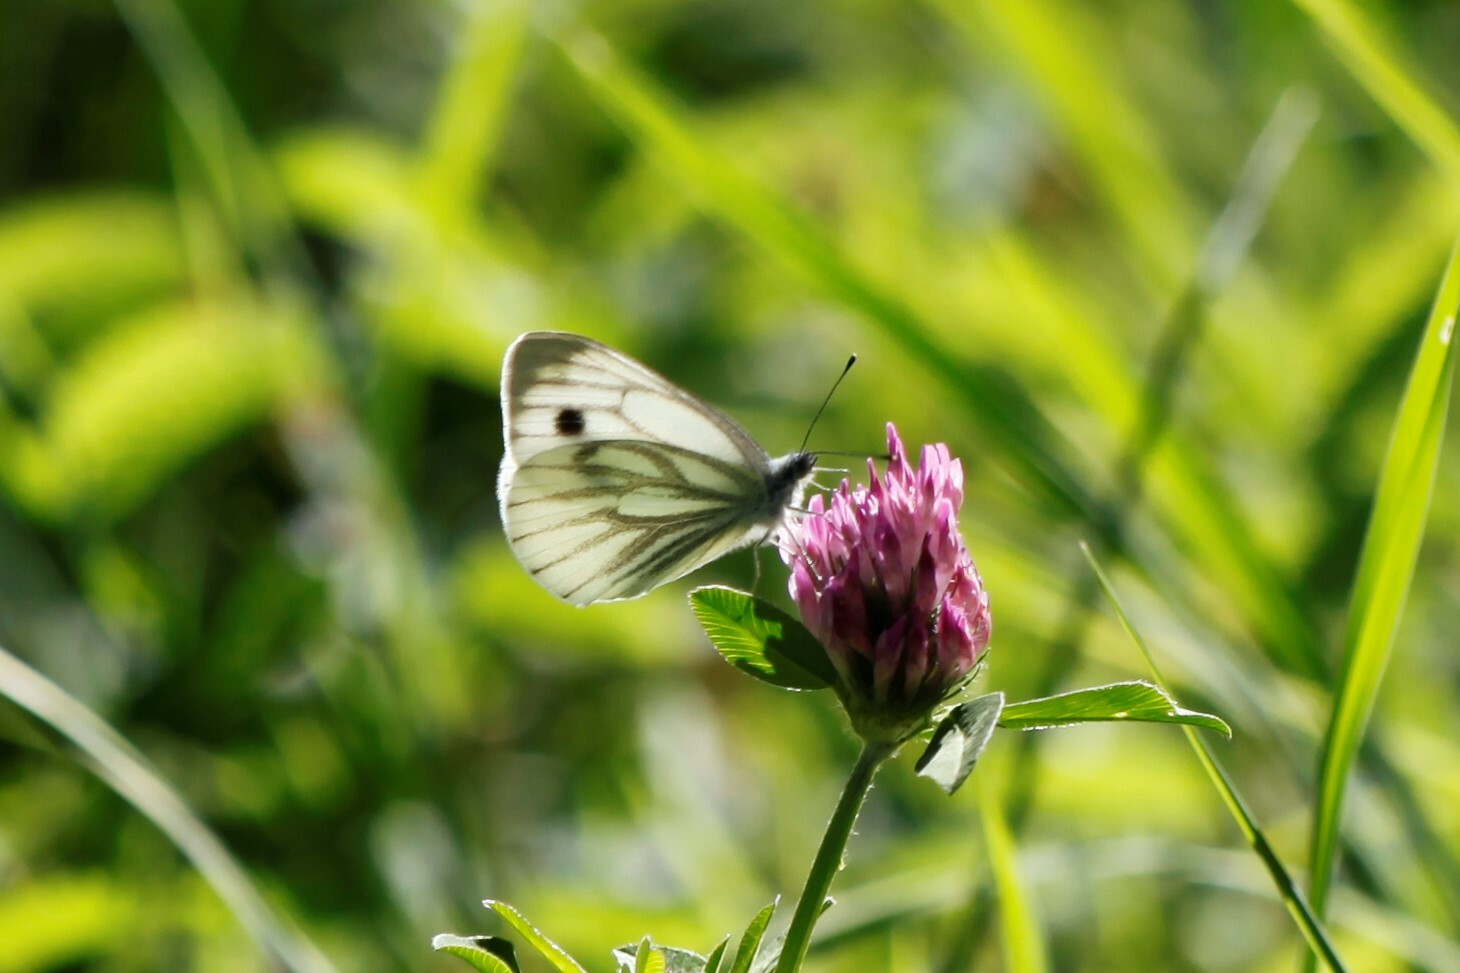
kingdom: Animalia
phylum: Arthropoda
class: Insecta
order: Lepidoptera
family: Pieridae
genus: Pieris
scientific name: Pieris napi
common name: Green-veined white
